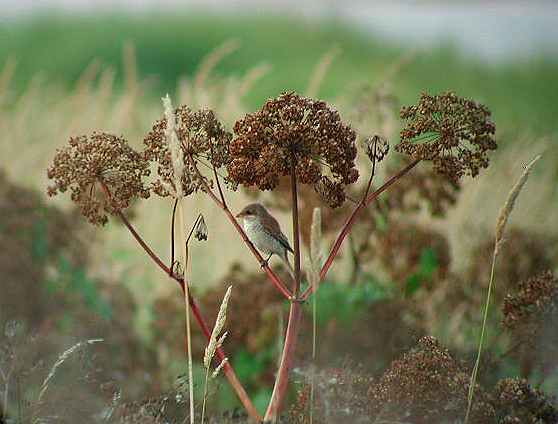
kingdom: Animalia
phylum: Chordata
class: Aves
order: Passeriformes
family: Laniidae
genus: Lanius
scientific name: Lanius collurio
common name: Red-backed shrike
